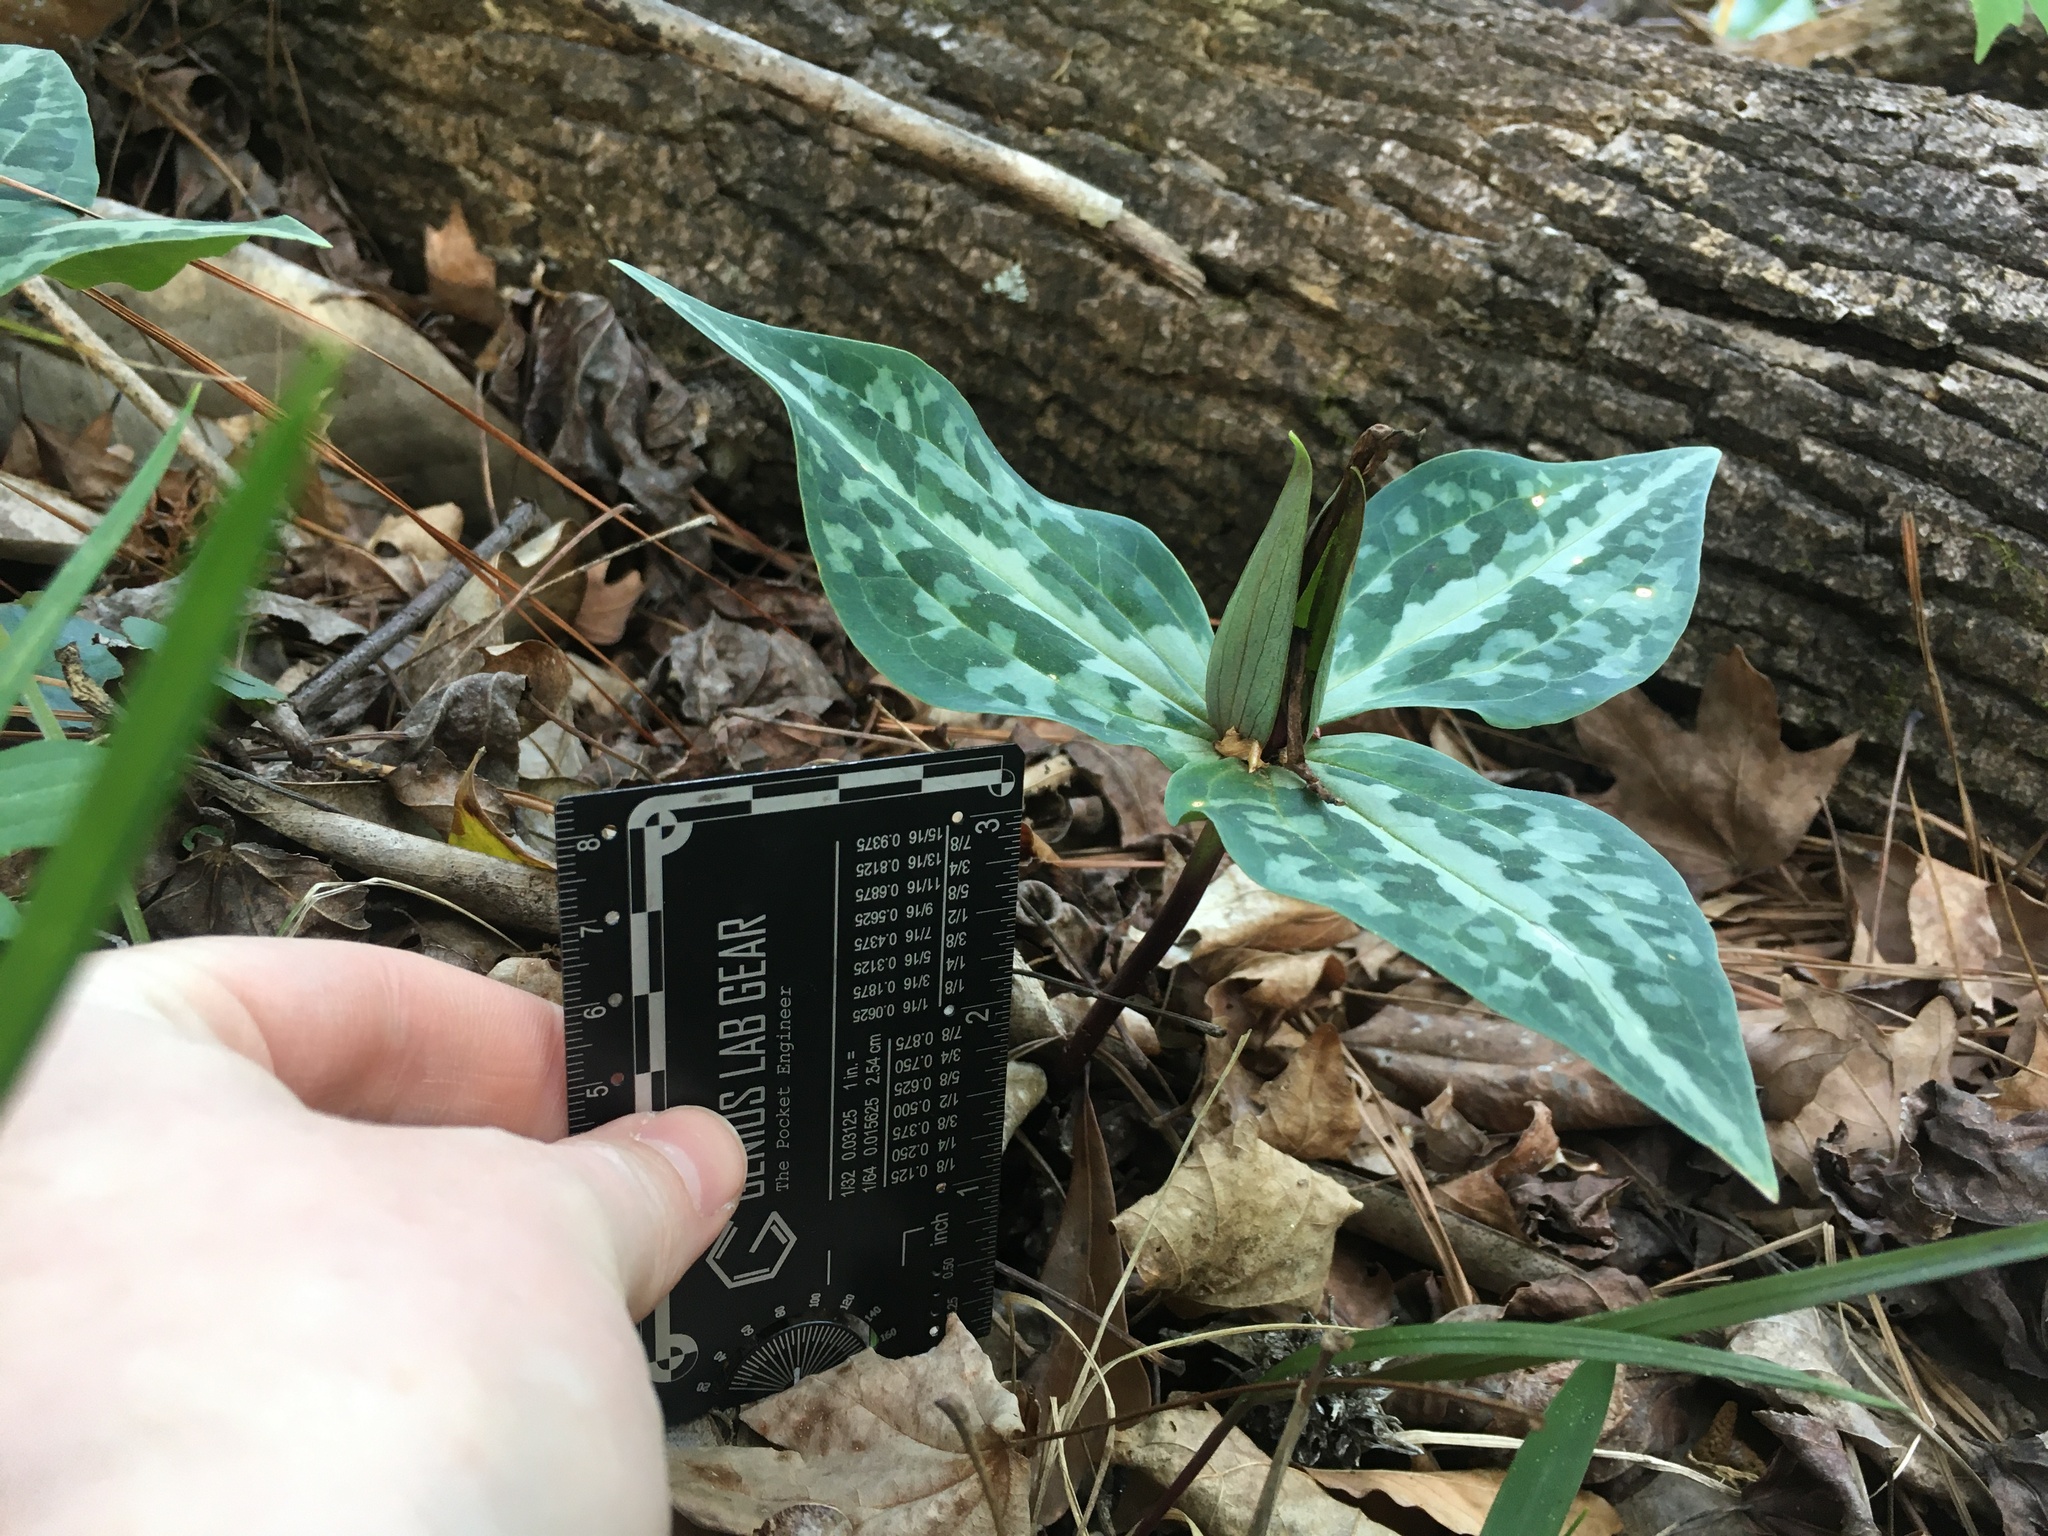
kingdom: Plantae
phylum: Tracheophyta
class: Liliopsida
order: Liliales
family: Melanthiaceae
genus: Trillium
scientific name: Trillium underwoodii
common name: Longbract wakerobin
